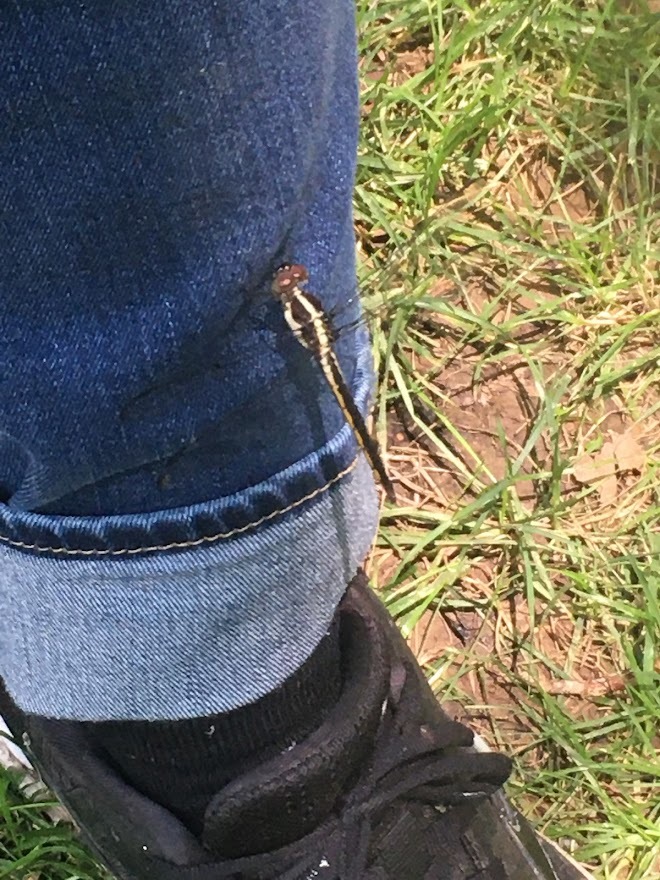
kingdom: Animalia
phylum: Arthropoda
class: Insecta
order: Odonata
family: Libellulidae
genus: Libellula
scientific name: Libellula incesta
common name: Slaty skimmer
